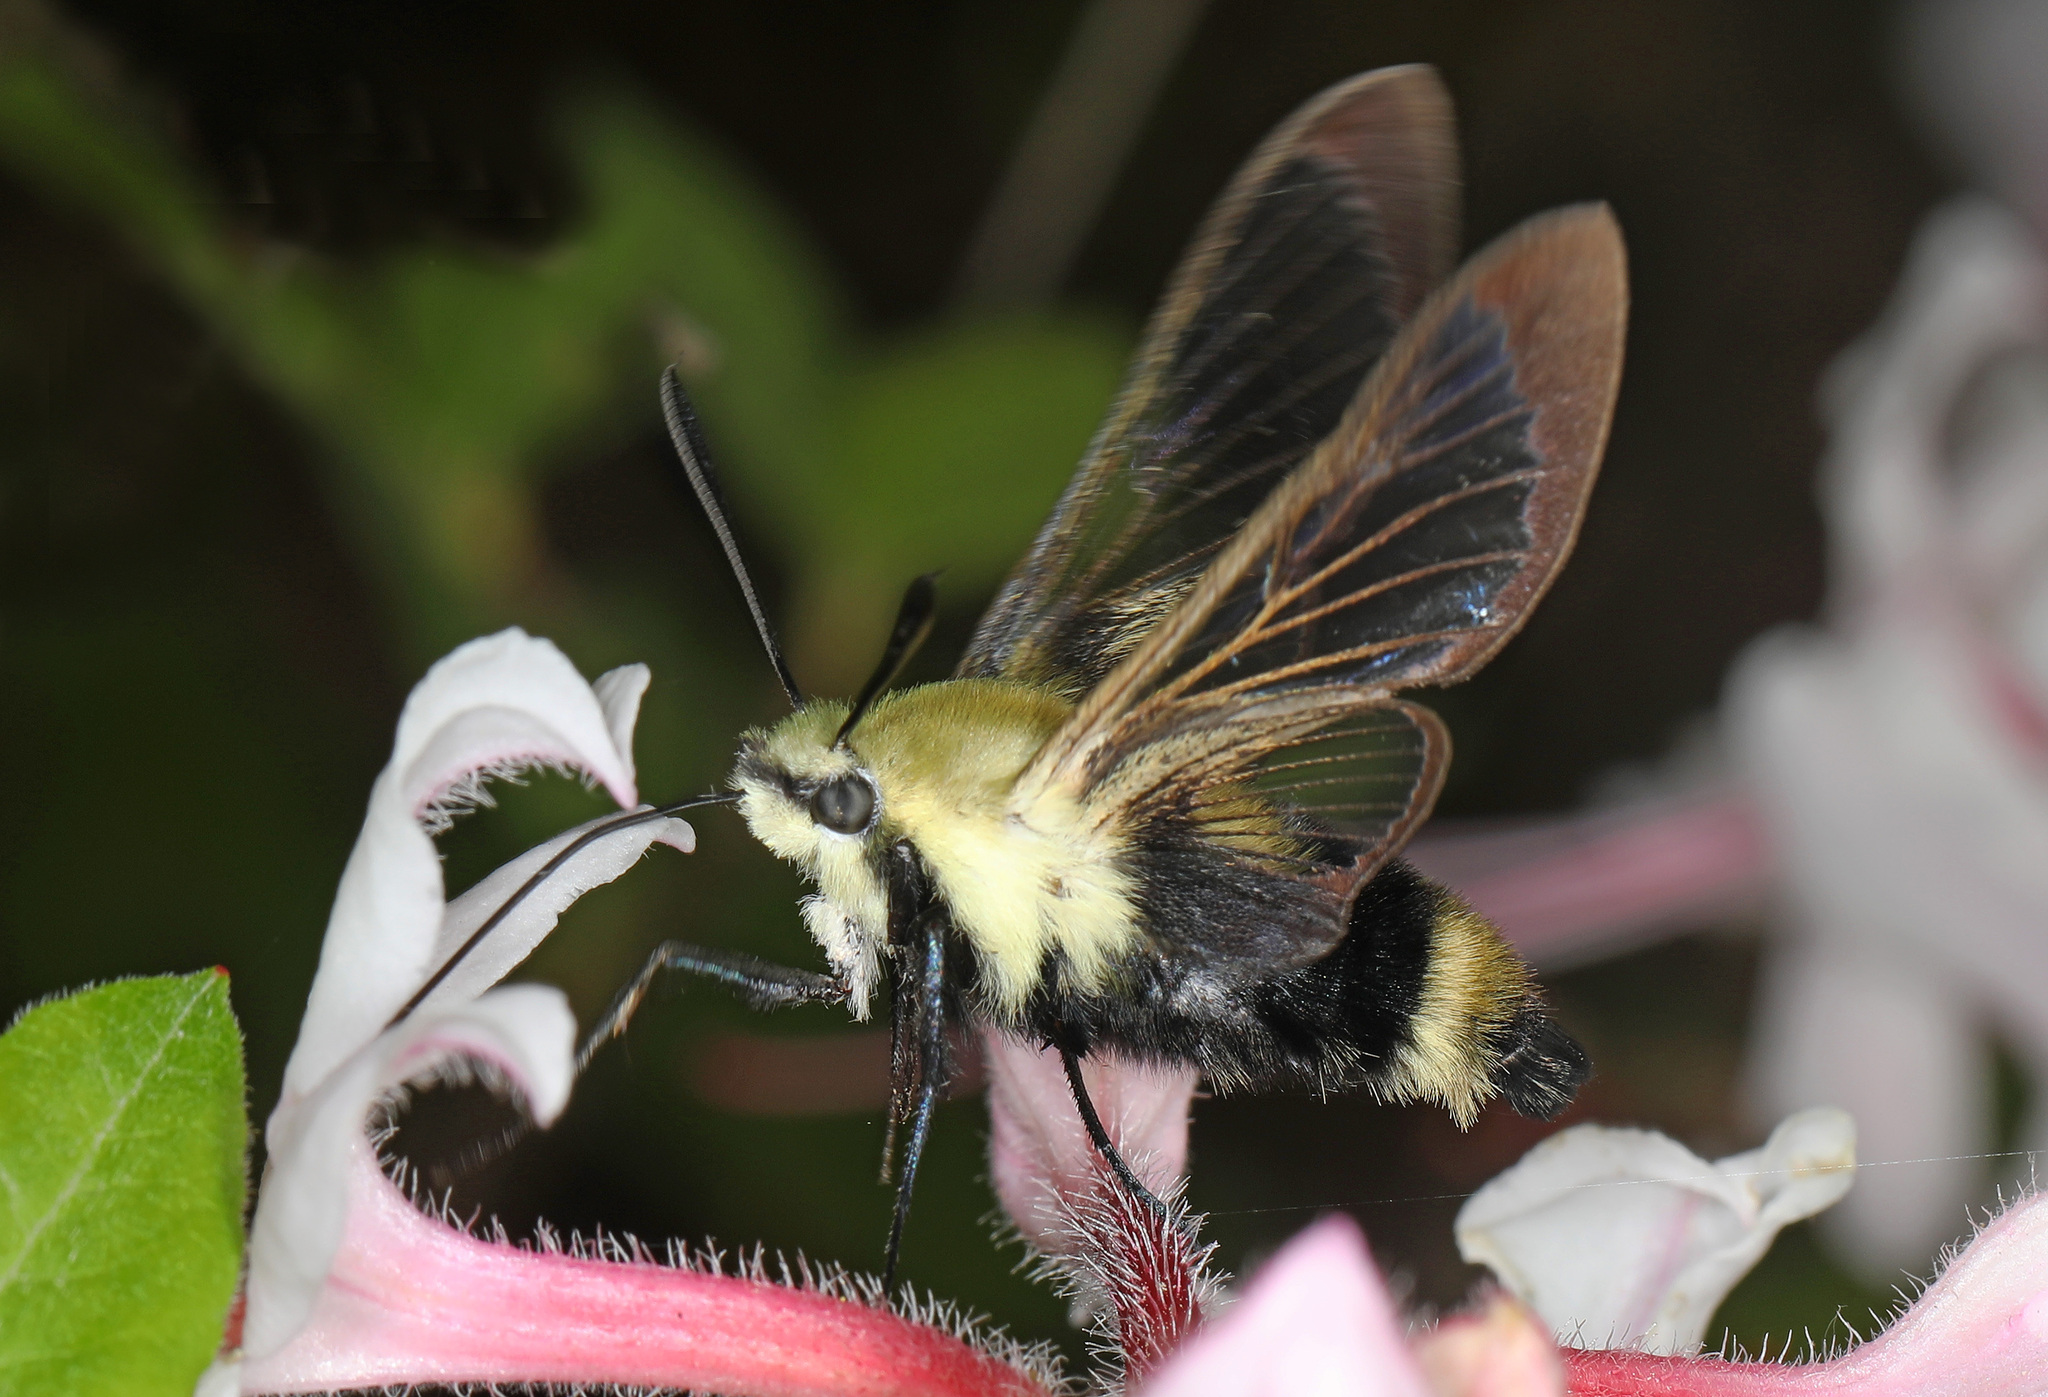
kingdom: Animalia
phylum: Arthropoda
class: Insecta
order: Lepidoptera
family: Sphingidae
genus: Hemaris
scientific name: Hemaris diffinis
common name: Bumblebee moth
